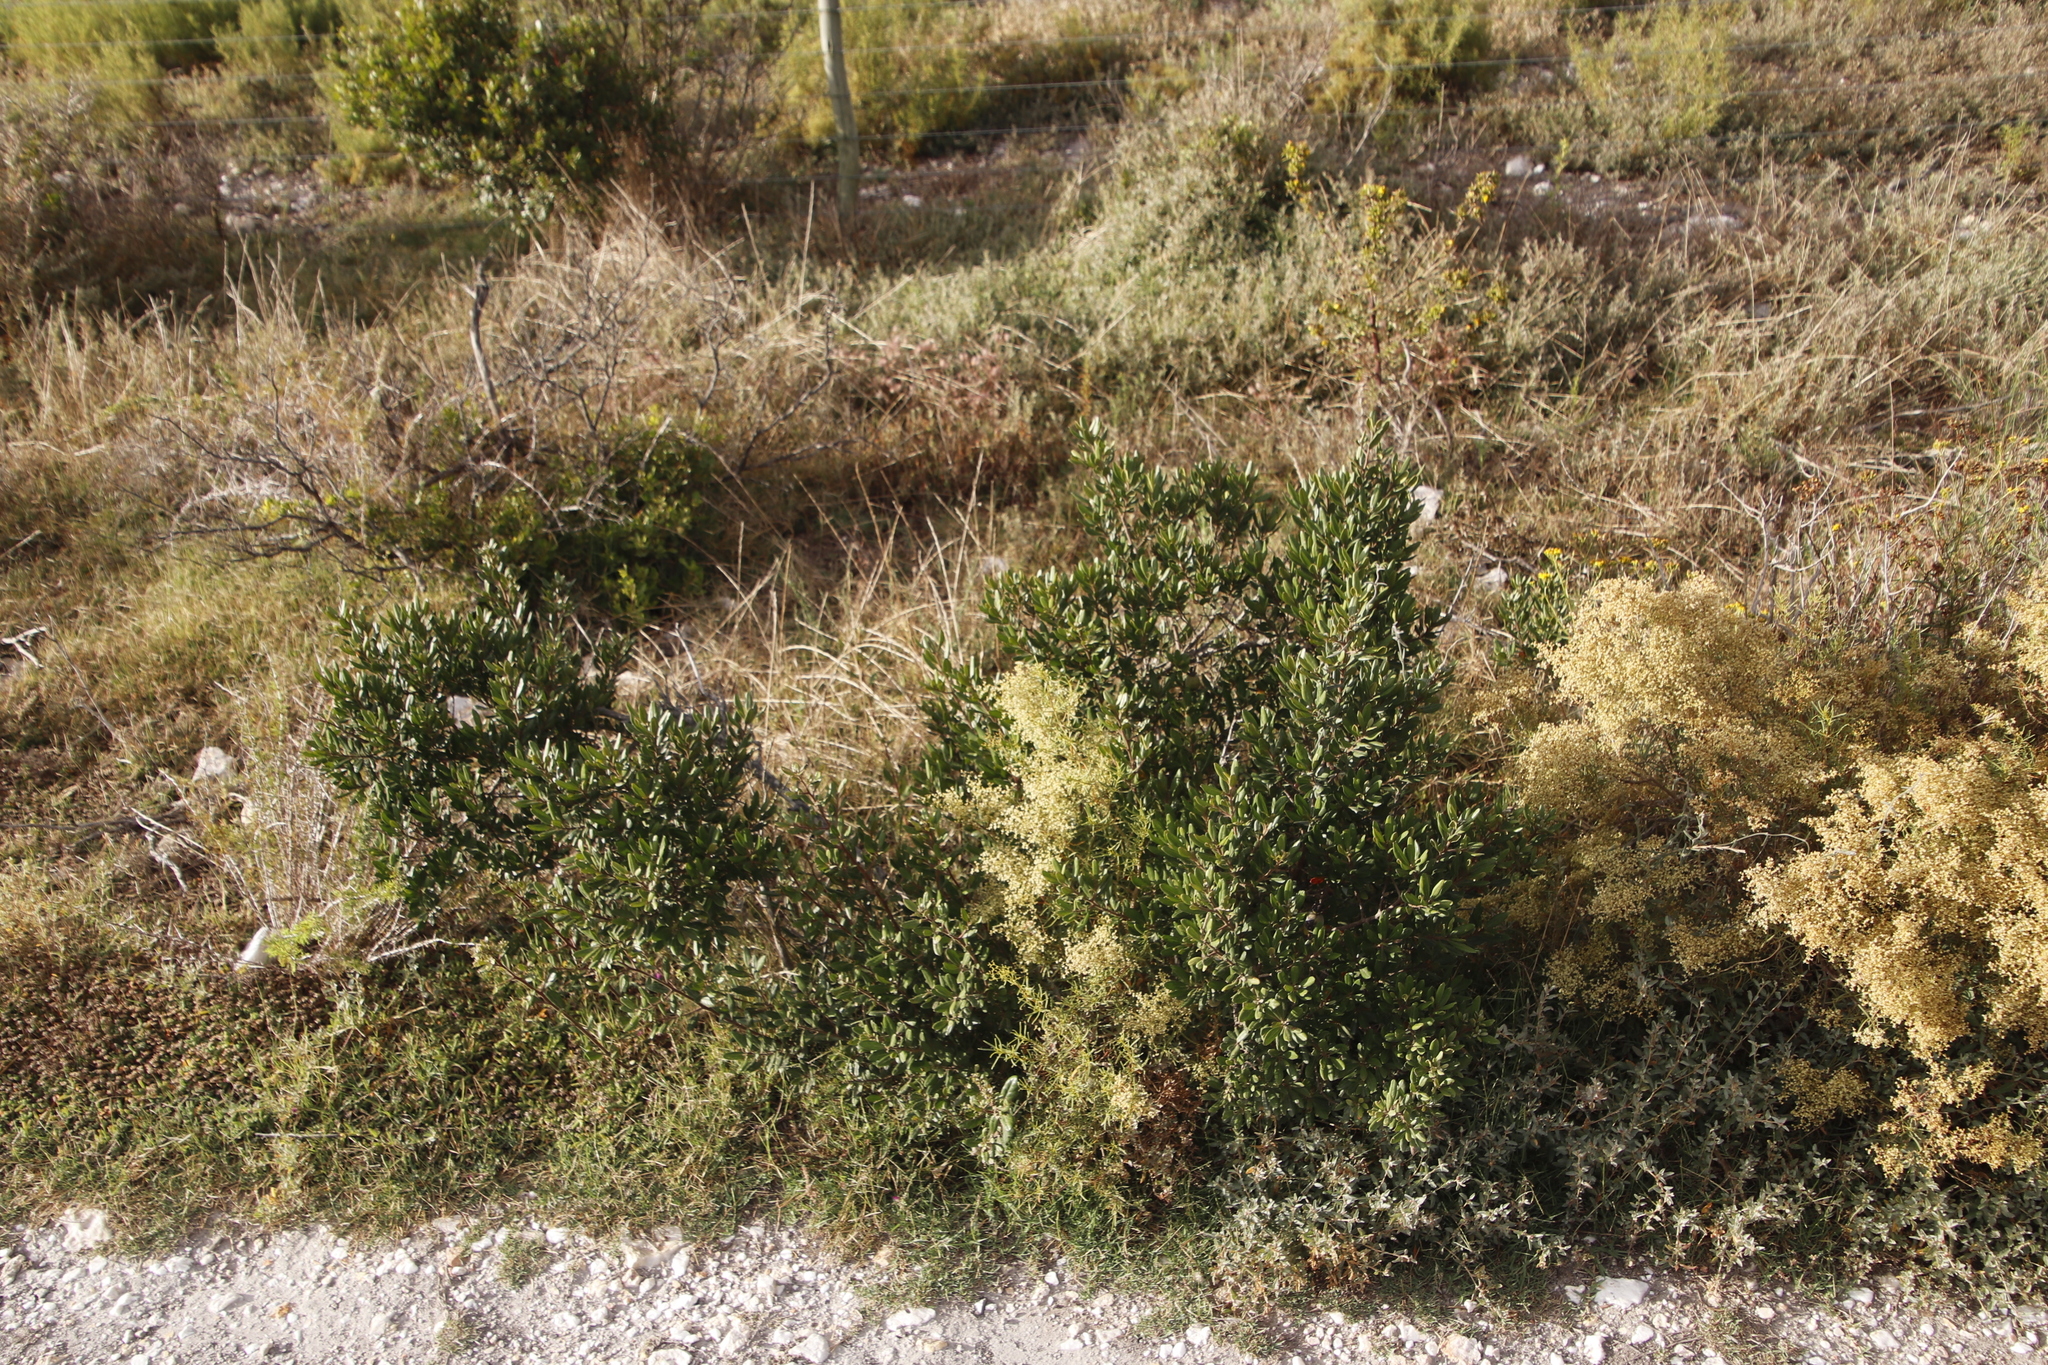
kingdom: Plantae
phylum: Tracheophyta
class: Magnoliopsida
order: Ericales
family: Ebenaceae
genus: Diospyros
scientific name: Diospyros dichrophylla
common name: Common star-apple
